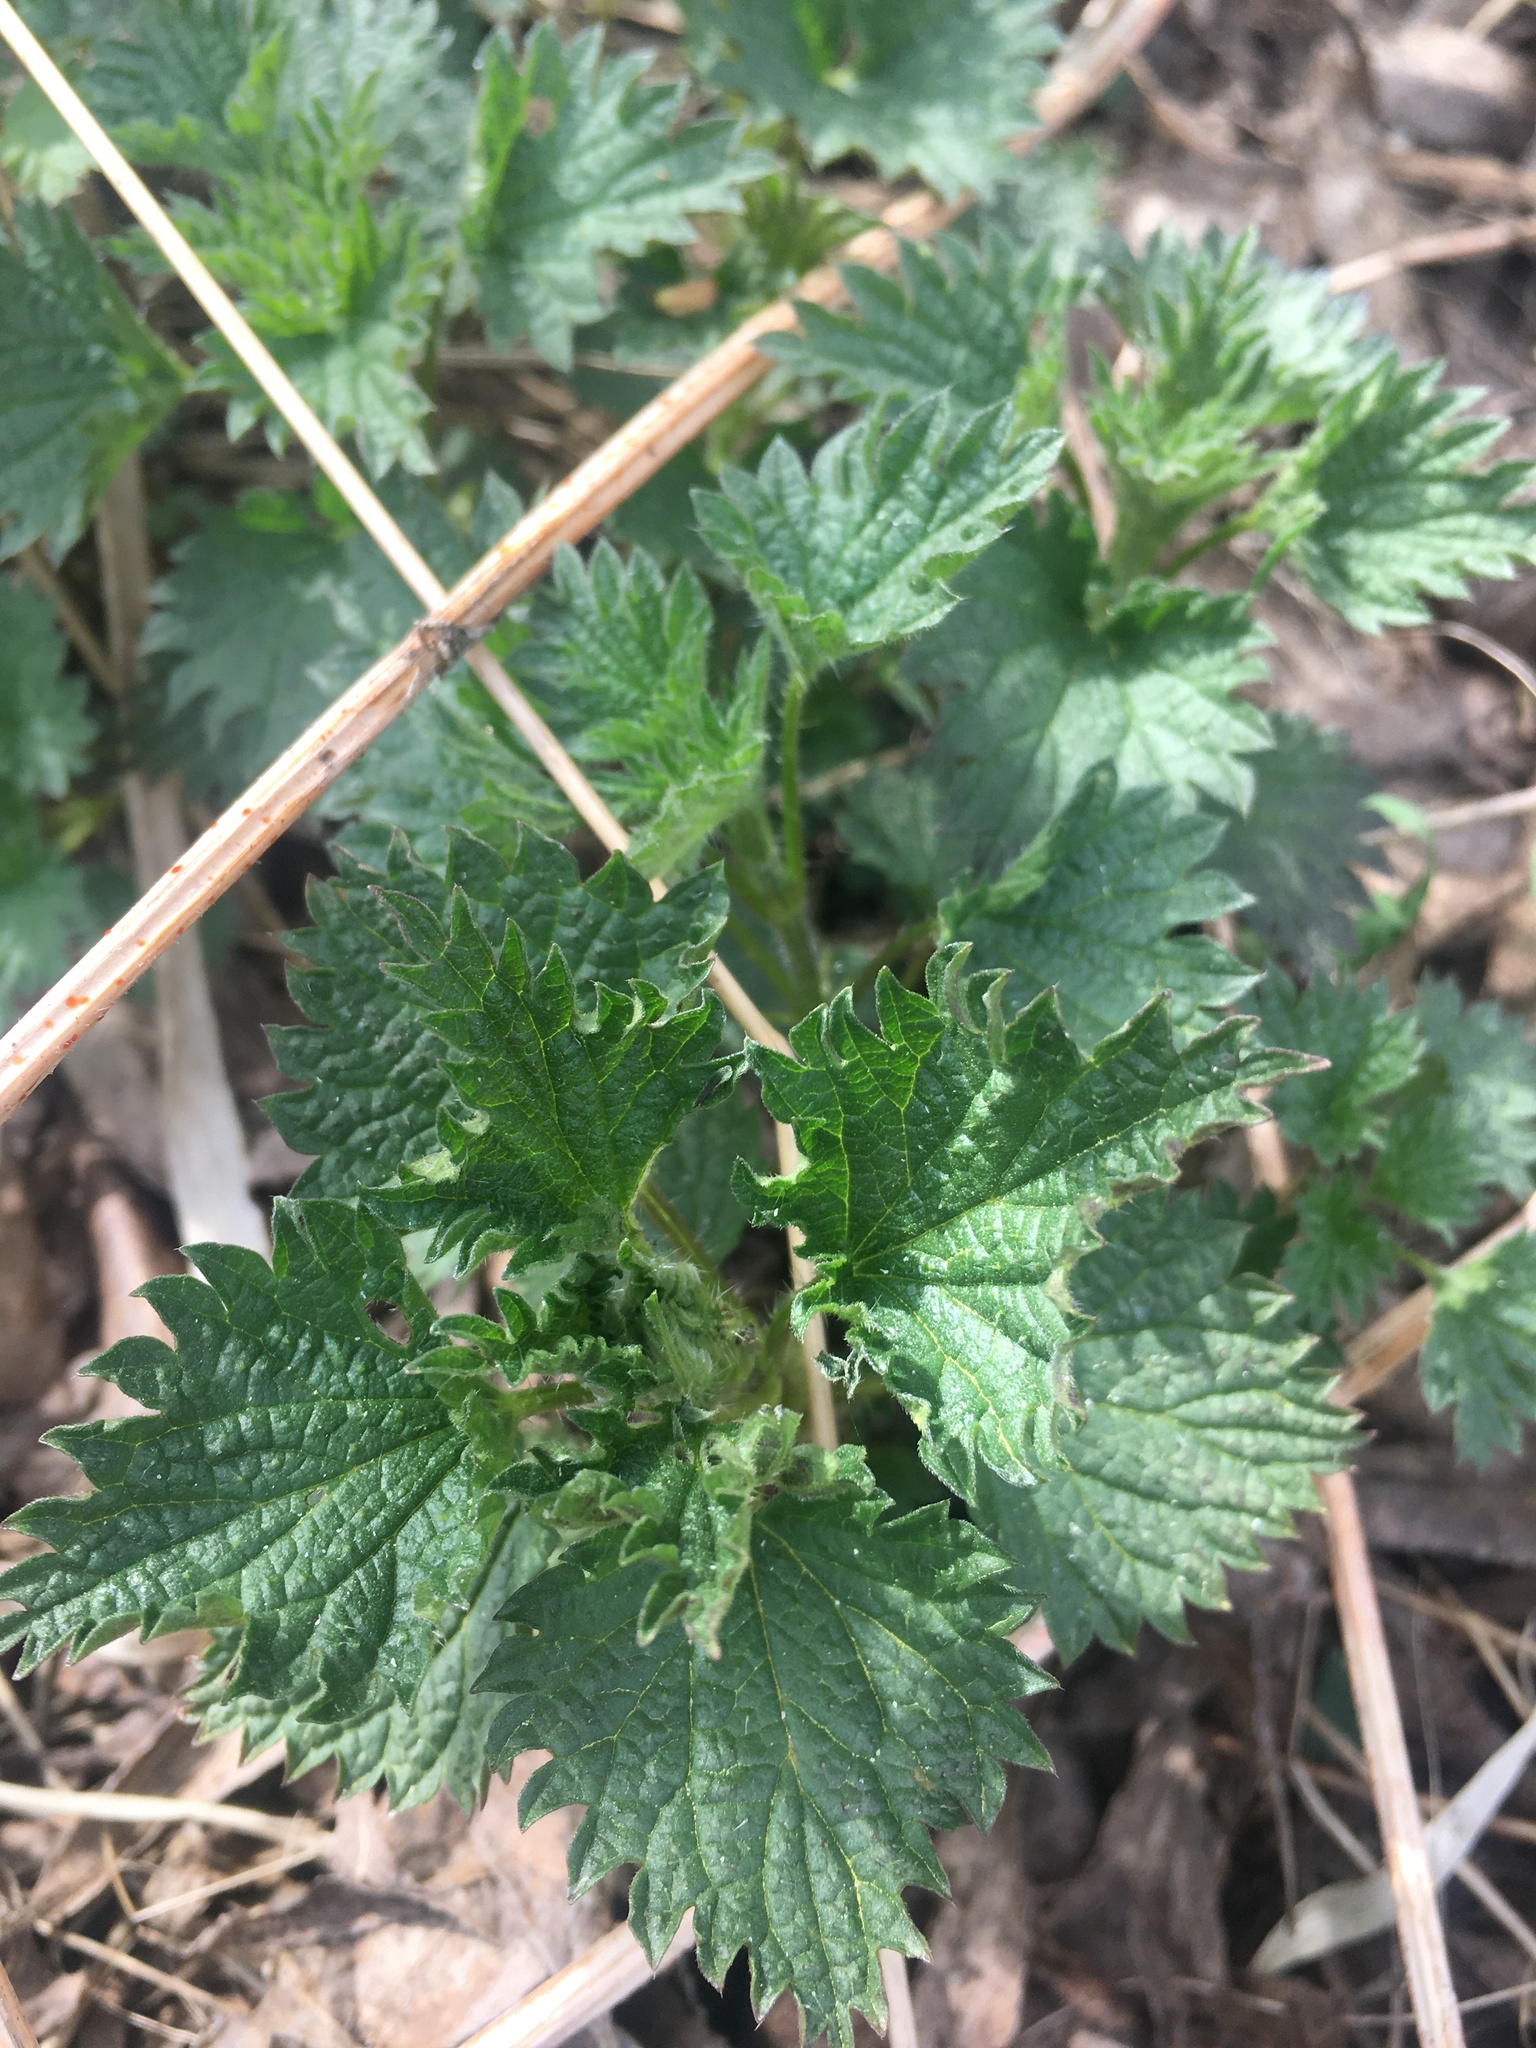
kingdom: Plantae
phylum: Tracheophyta
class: Magnoliopsida
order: Rosales
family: Urticaceae
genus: Urtica
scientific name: Urtica dioica
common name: Common nettle
